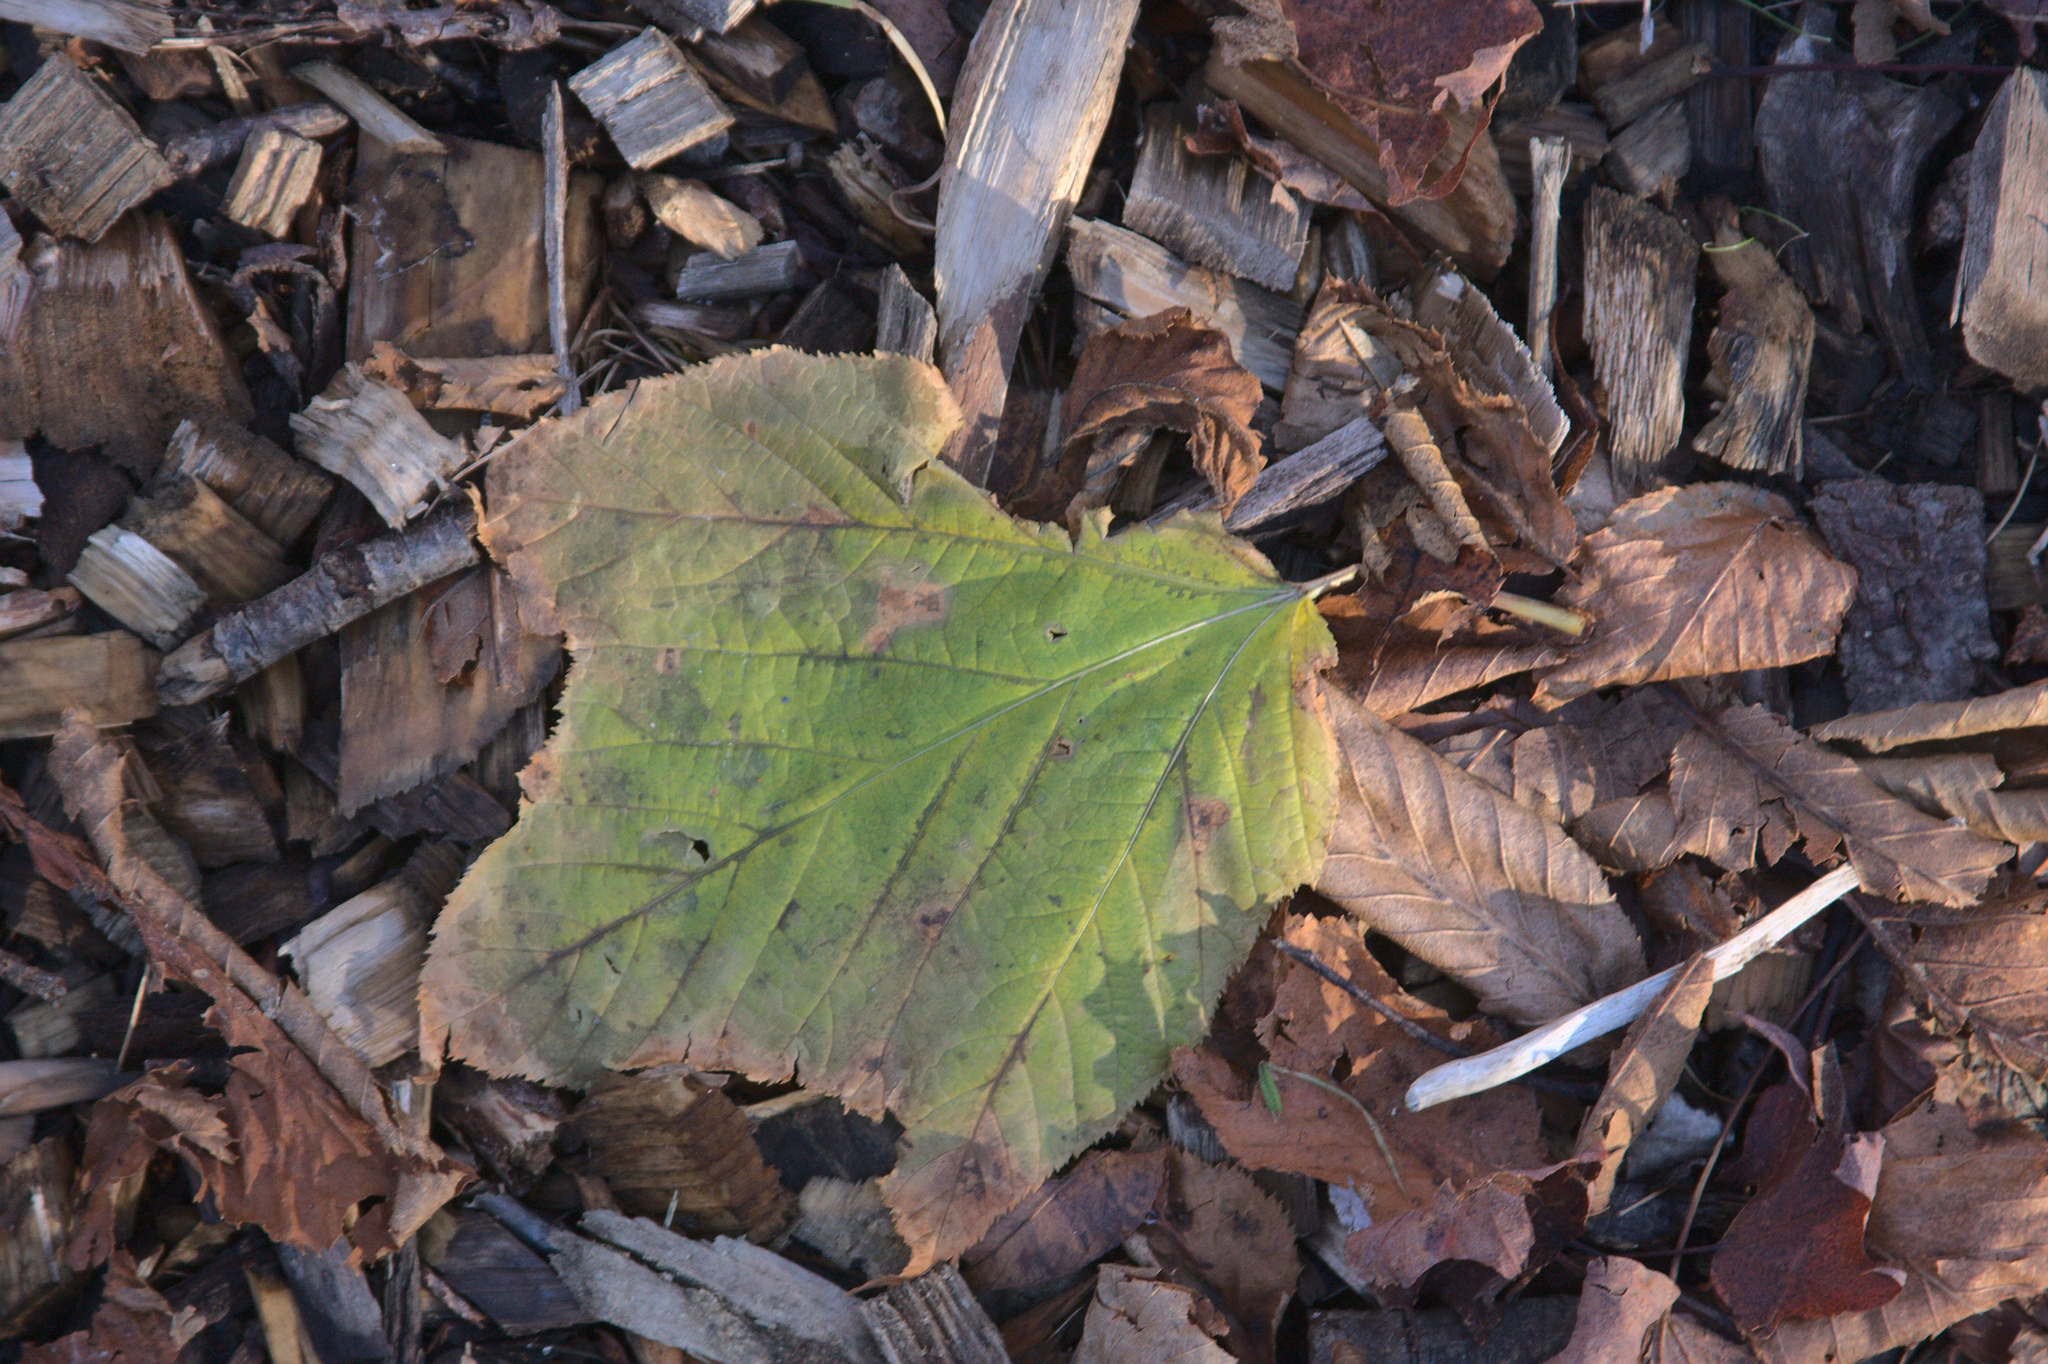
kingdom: Plantae
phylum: Tracheophyta
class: Magnoliopsida
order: Sapindales
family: Sapindaceae
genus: Acer
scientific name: Acer pensylvanicum
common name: Moosewood
